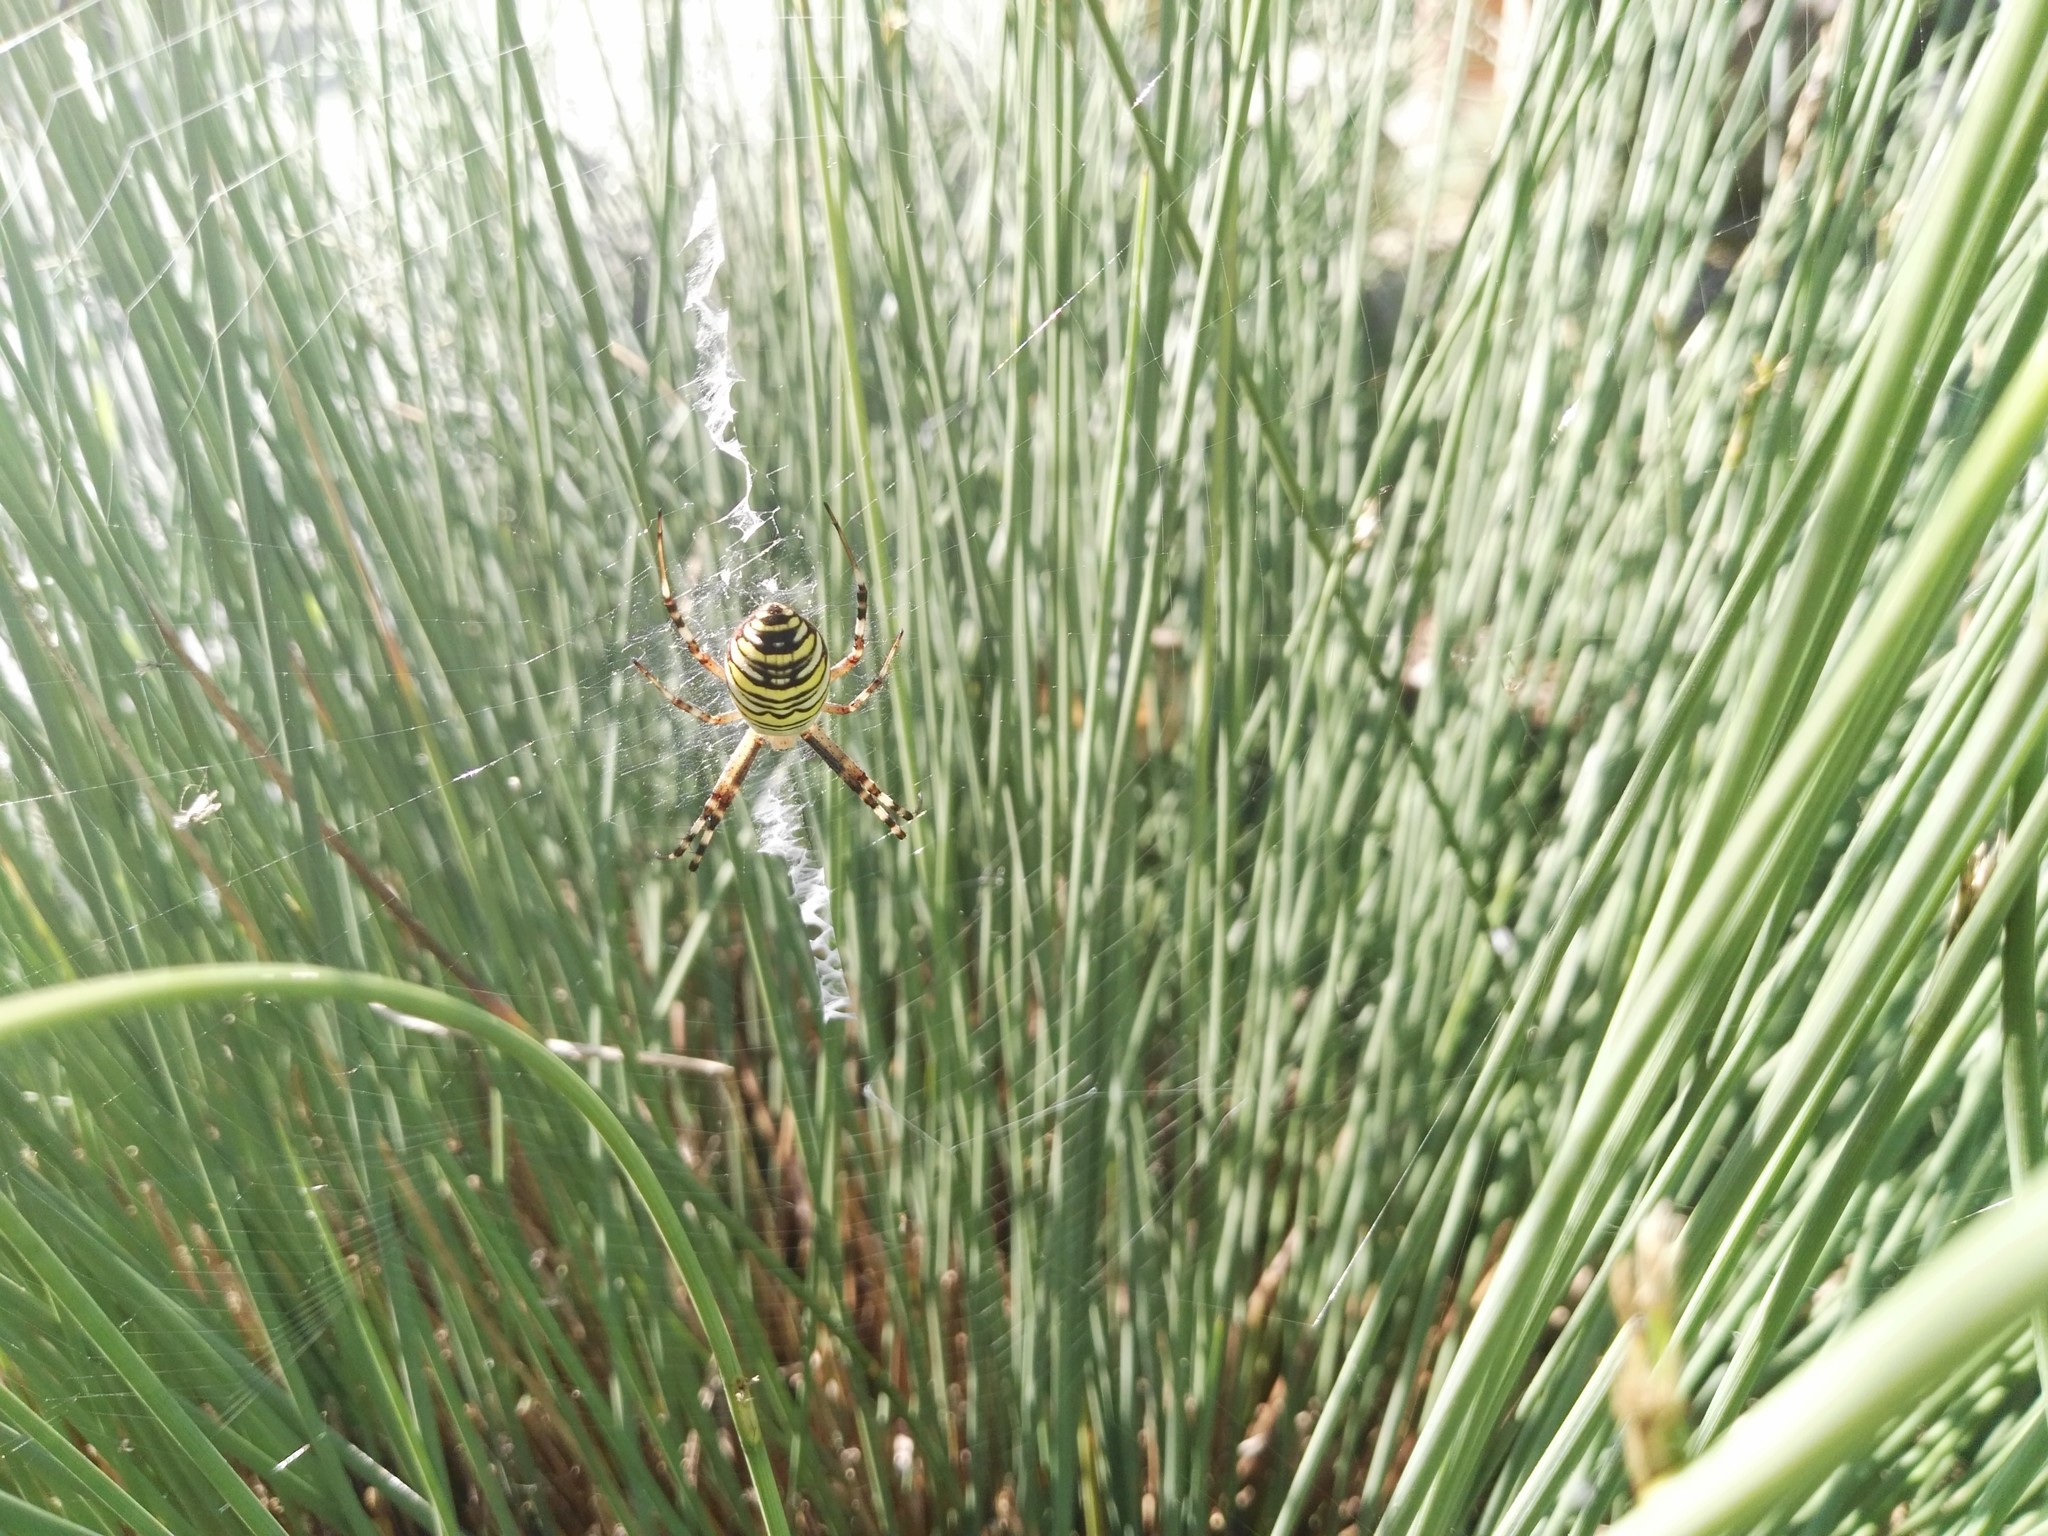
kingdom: Animalia
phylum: Arthropoda
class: Arachnida
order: Araneae
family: Araneidae
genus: Argiope
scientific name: Argiope bruennichi
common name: Wasp spider
